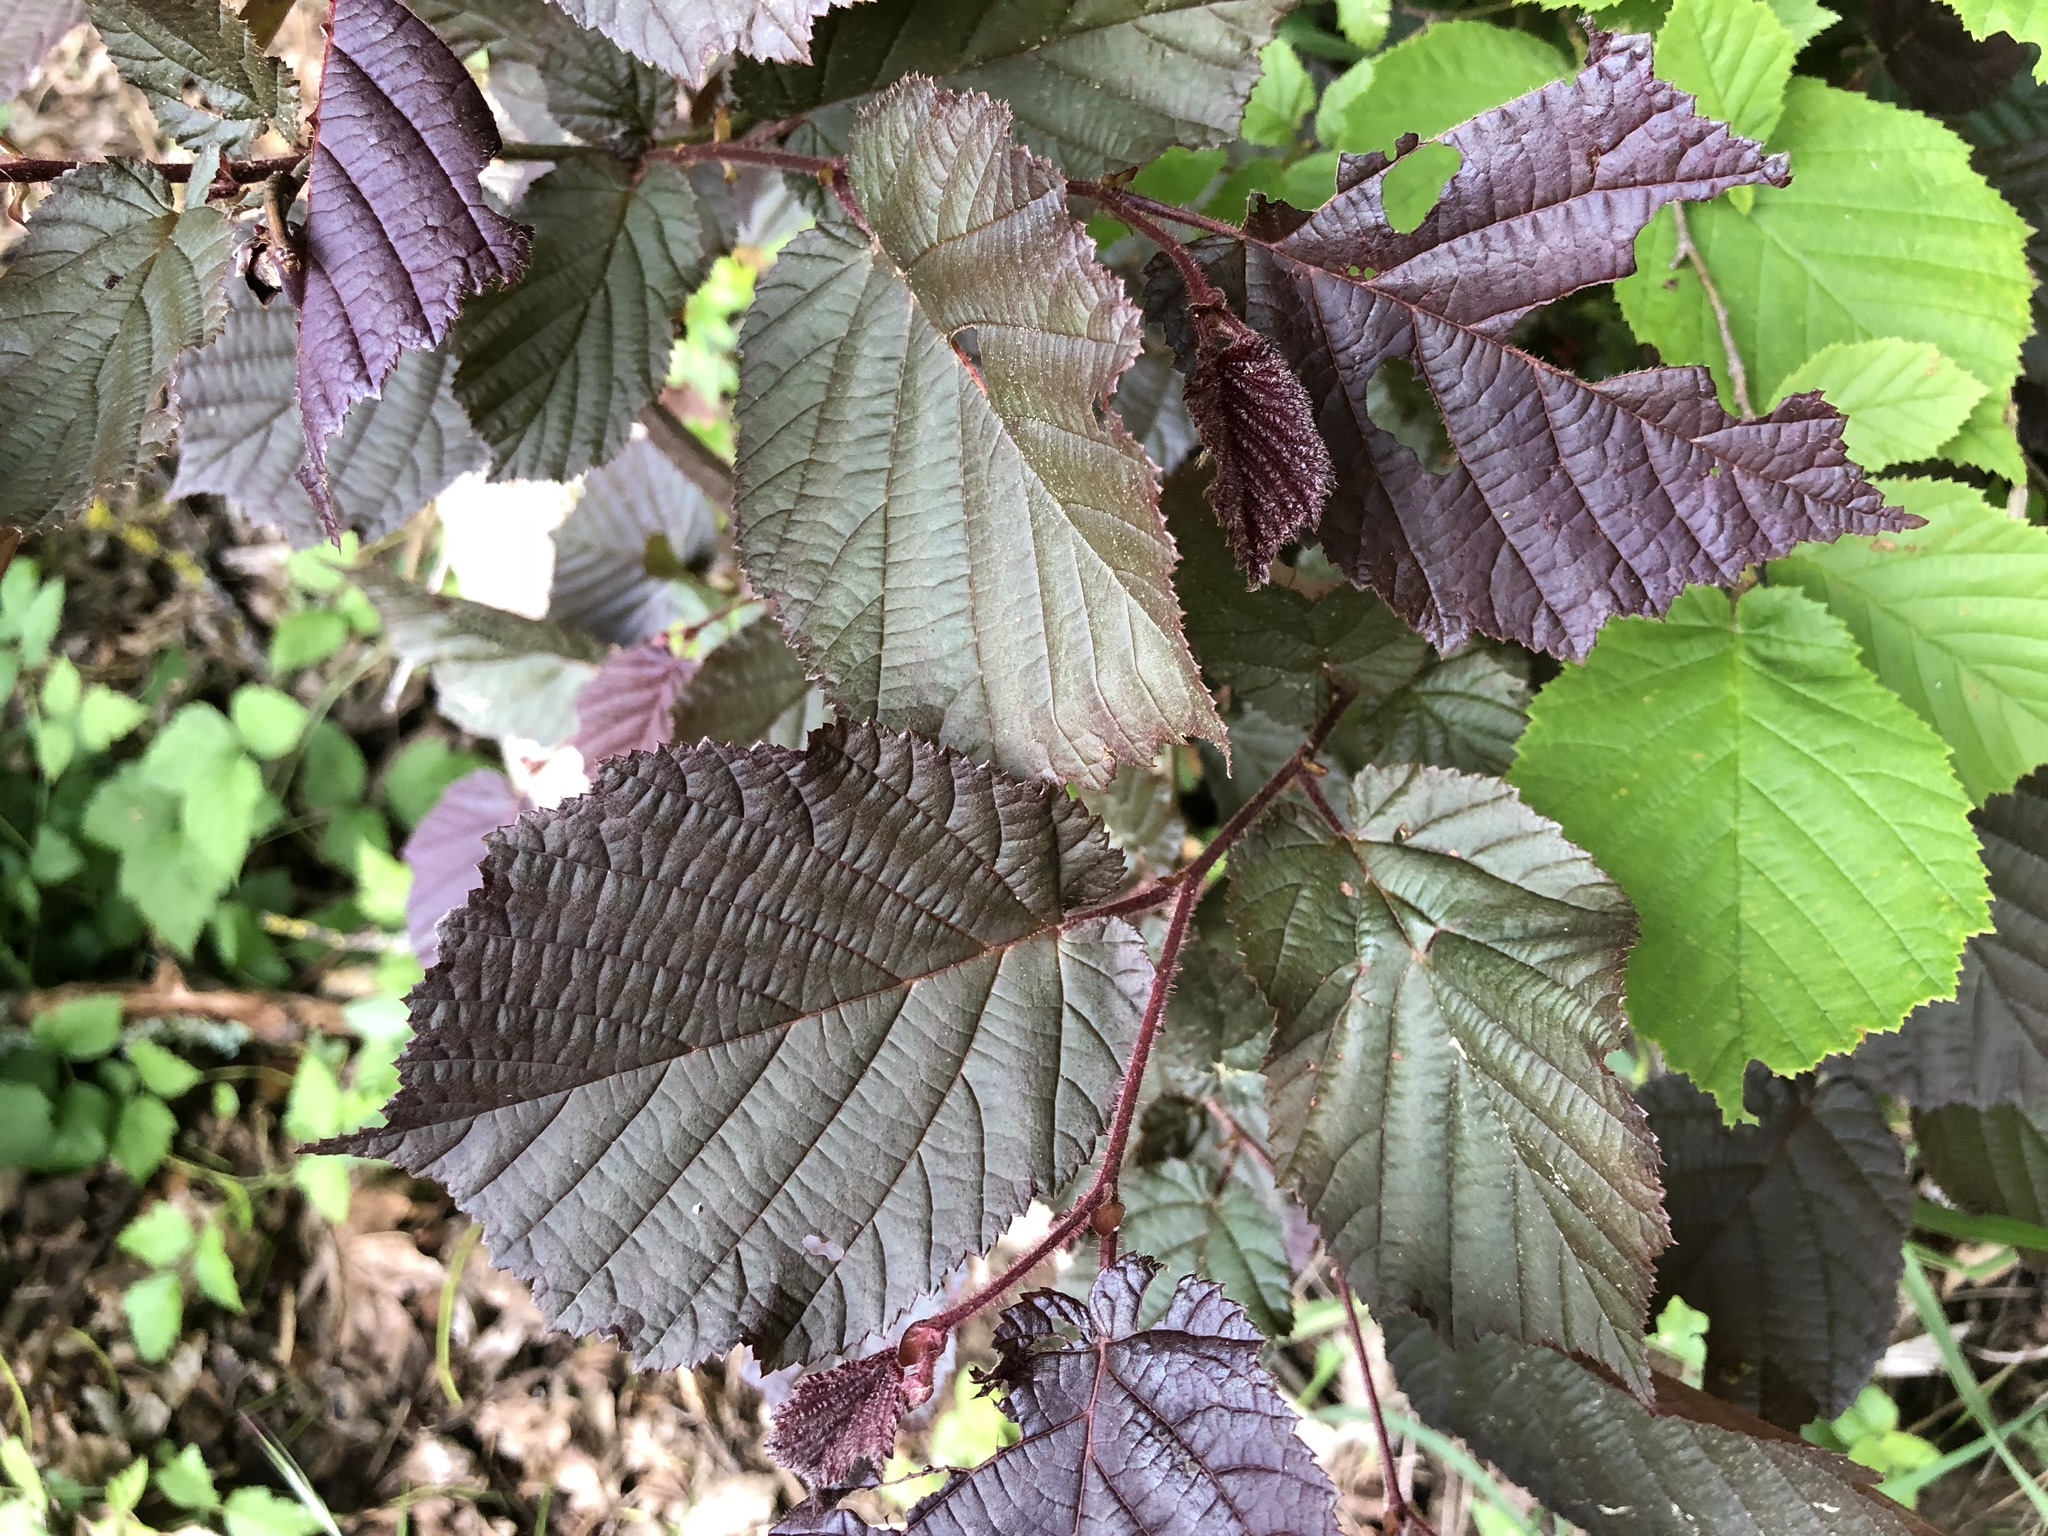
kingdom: Plantae
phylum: Tracheophyta
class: Magnoliopsida
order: Fagales
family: Betulaceae
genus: Corylus
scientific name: Corylus avellana
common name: European hazel
